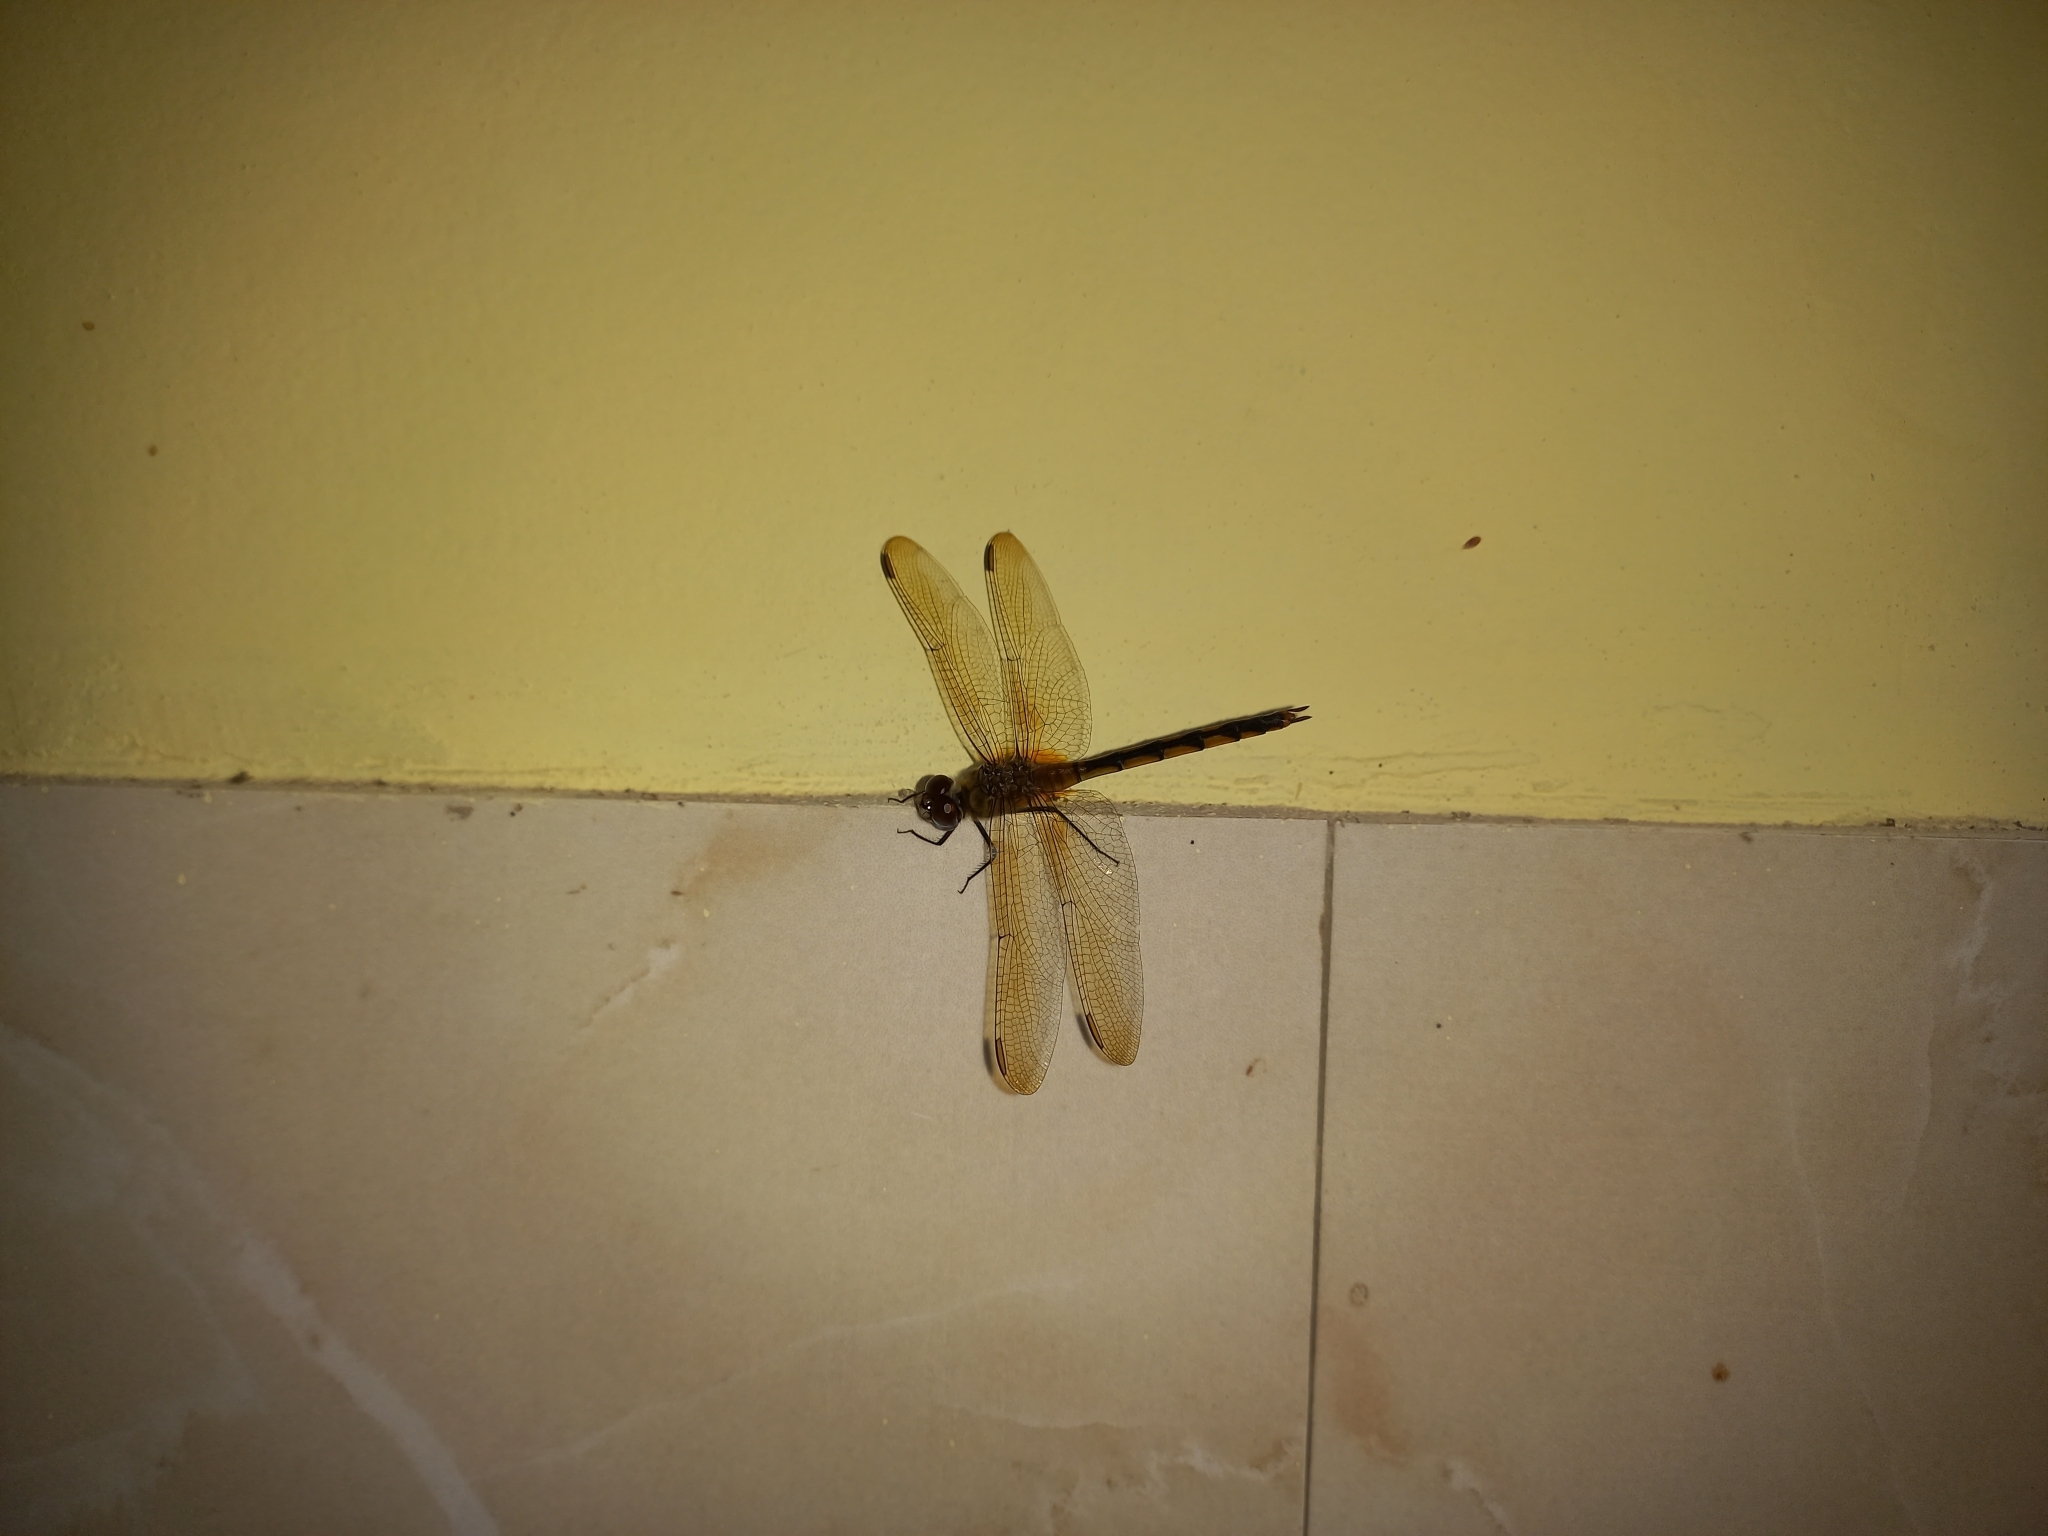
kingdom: Animalia
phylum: Arthropoda
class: Insecta
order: Odonata
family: Libellulidae
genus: Brachymesia
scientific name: Brachymesia herbida
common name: Tawny pennant
